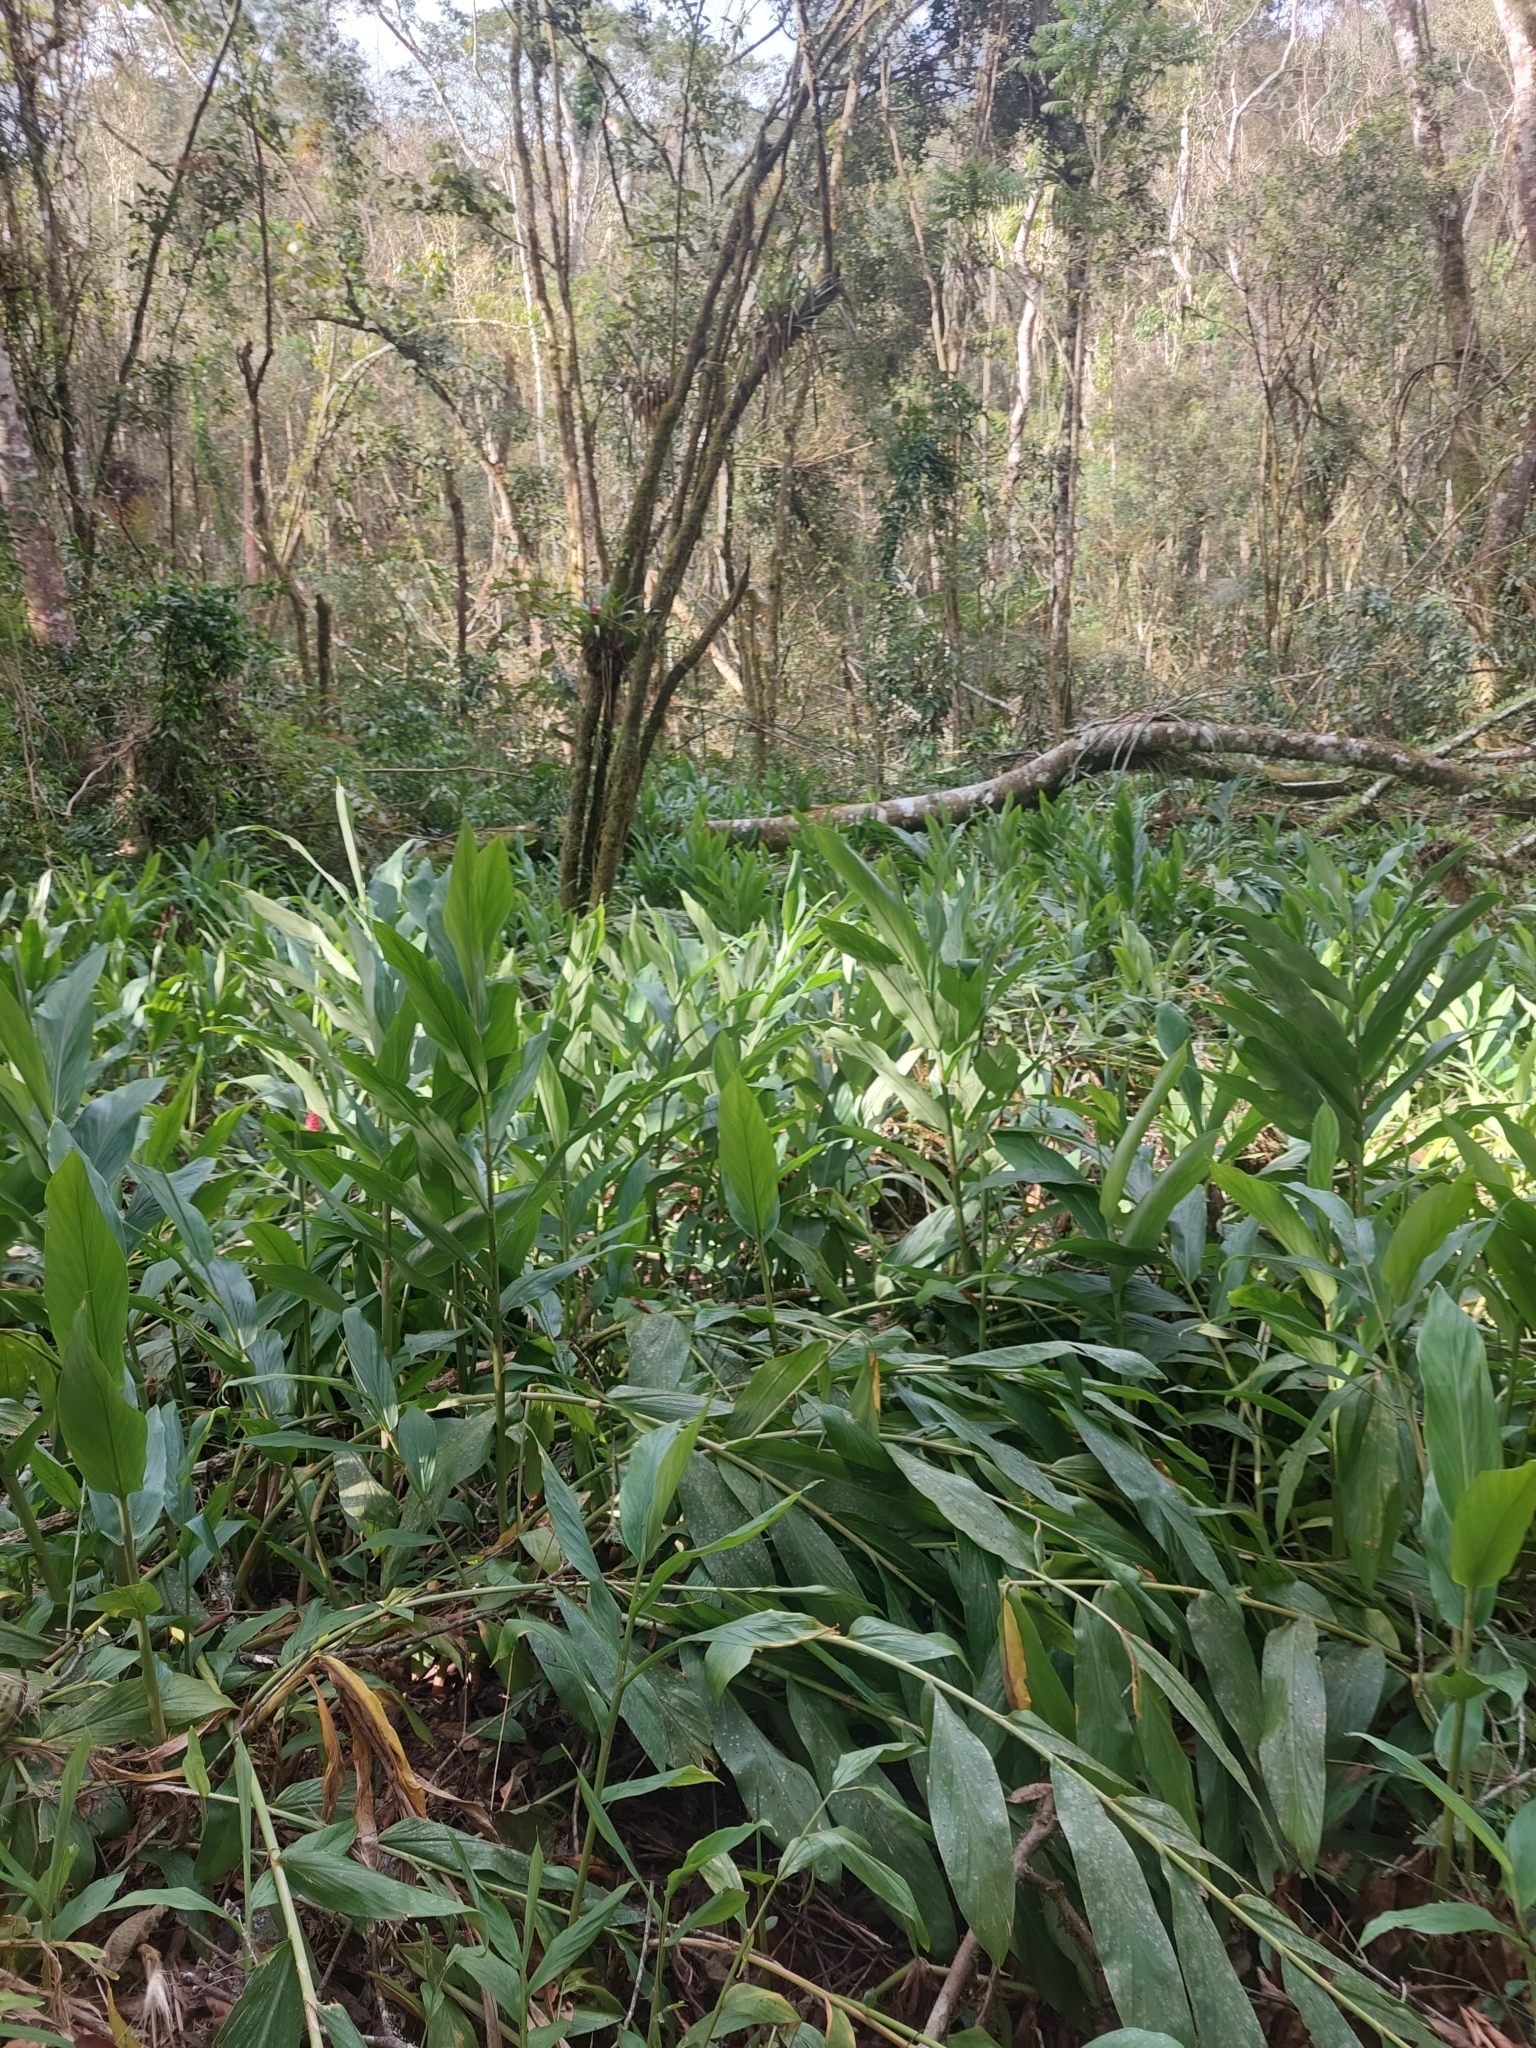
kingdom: Plantae
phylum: Tracheophyta
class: Liliopsida
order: Zingiberales
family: Zingiberaceae
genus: Hedychium
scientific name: Hedychium coronarium
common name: White garland-lily
